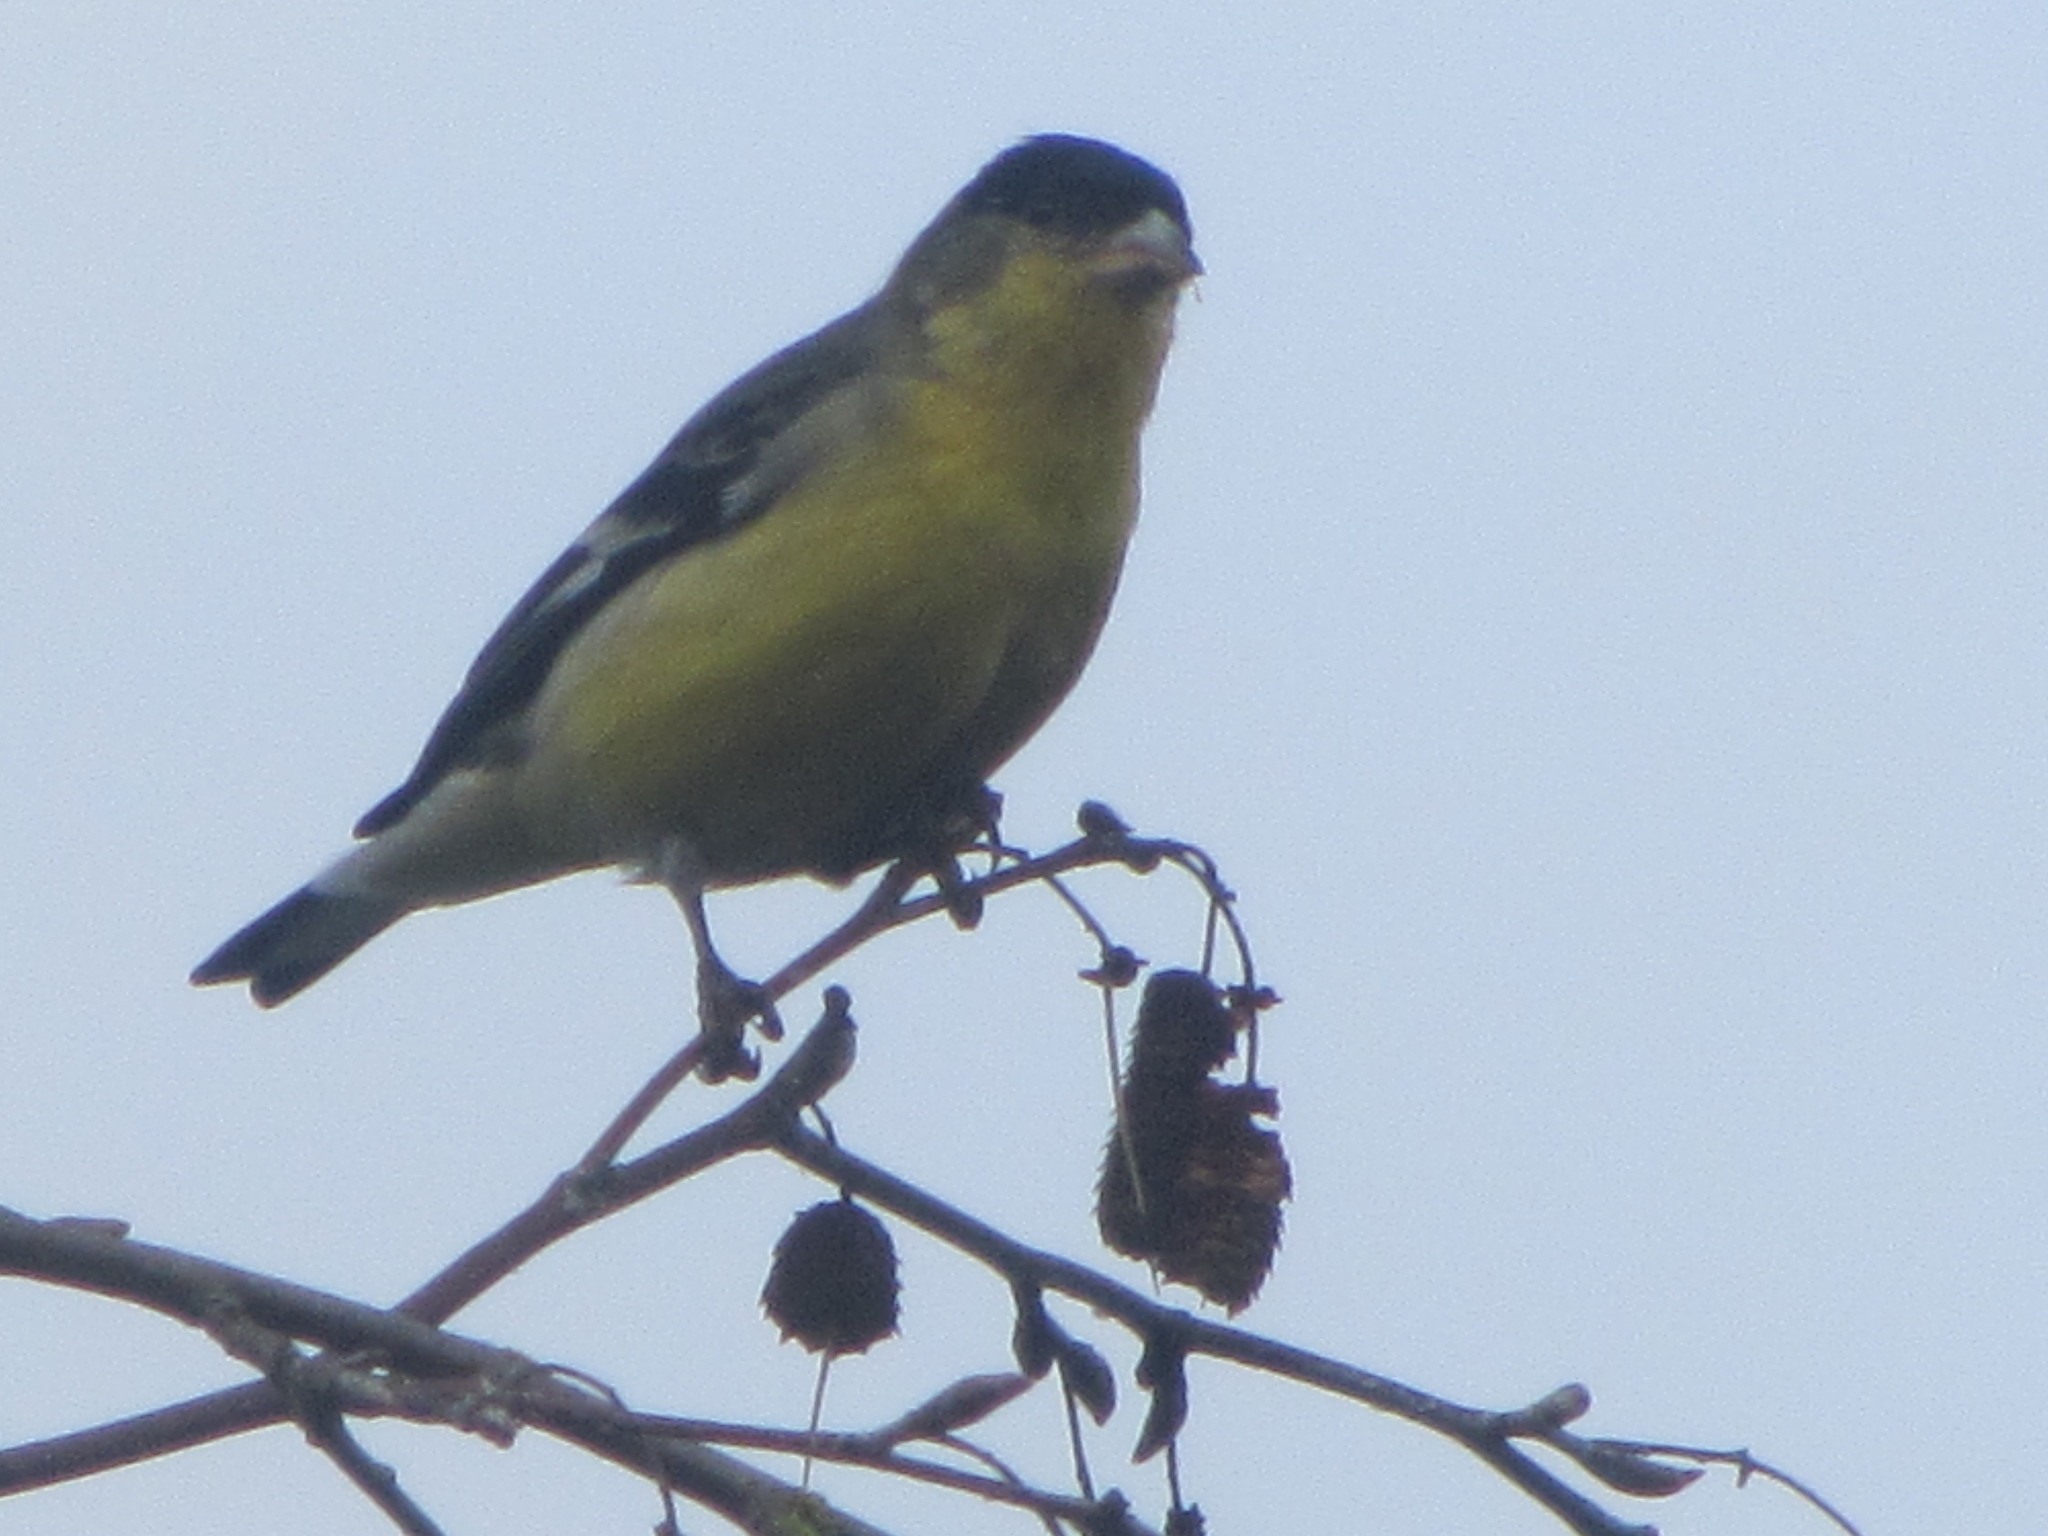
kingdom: Animalia
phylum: Chordata
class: Aves
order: Passeriformes
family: Fringillidae
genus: Spinus
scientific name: Spinus psaltria
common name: Lesser goldfinch
